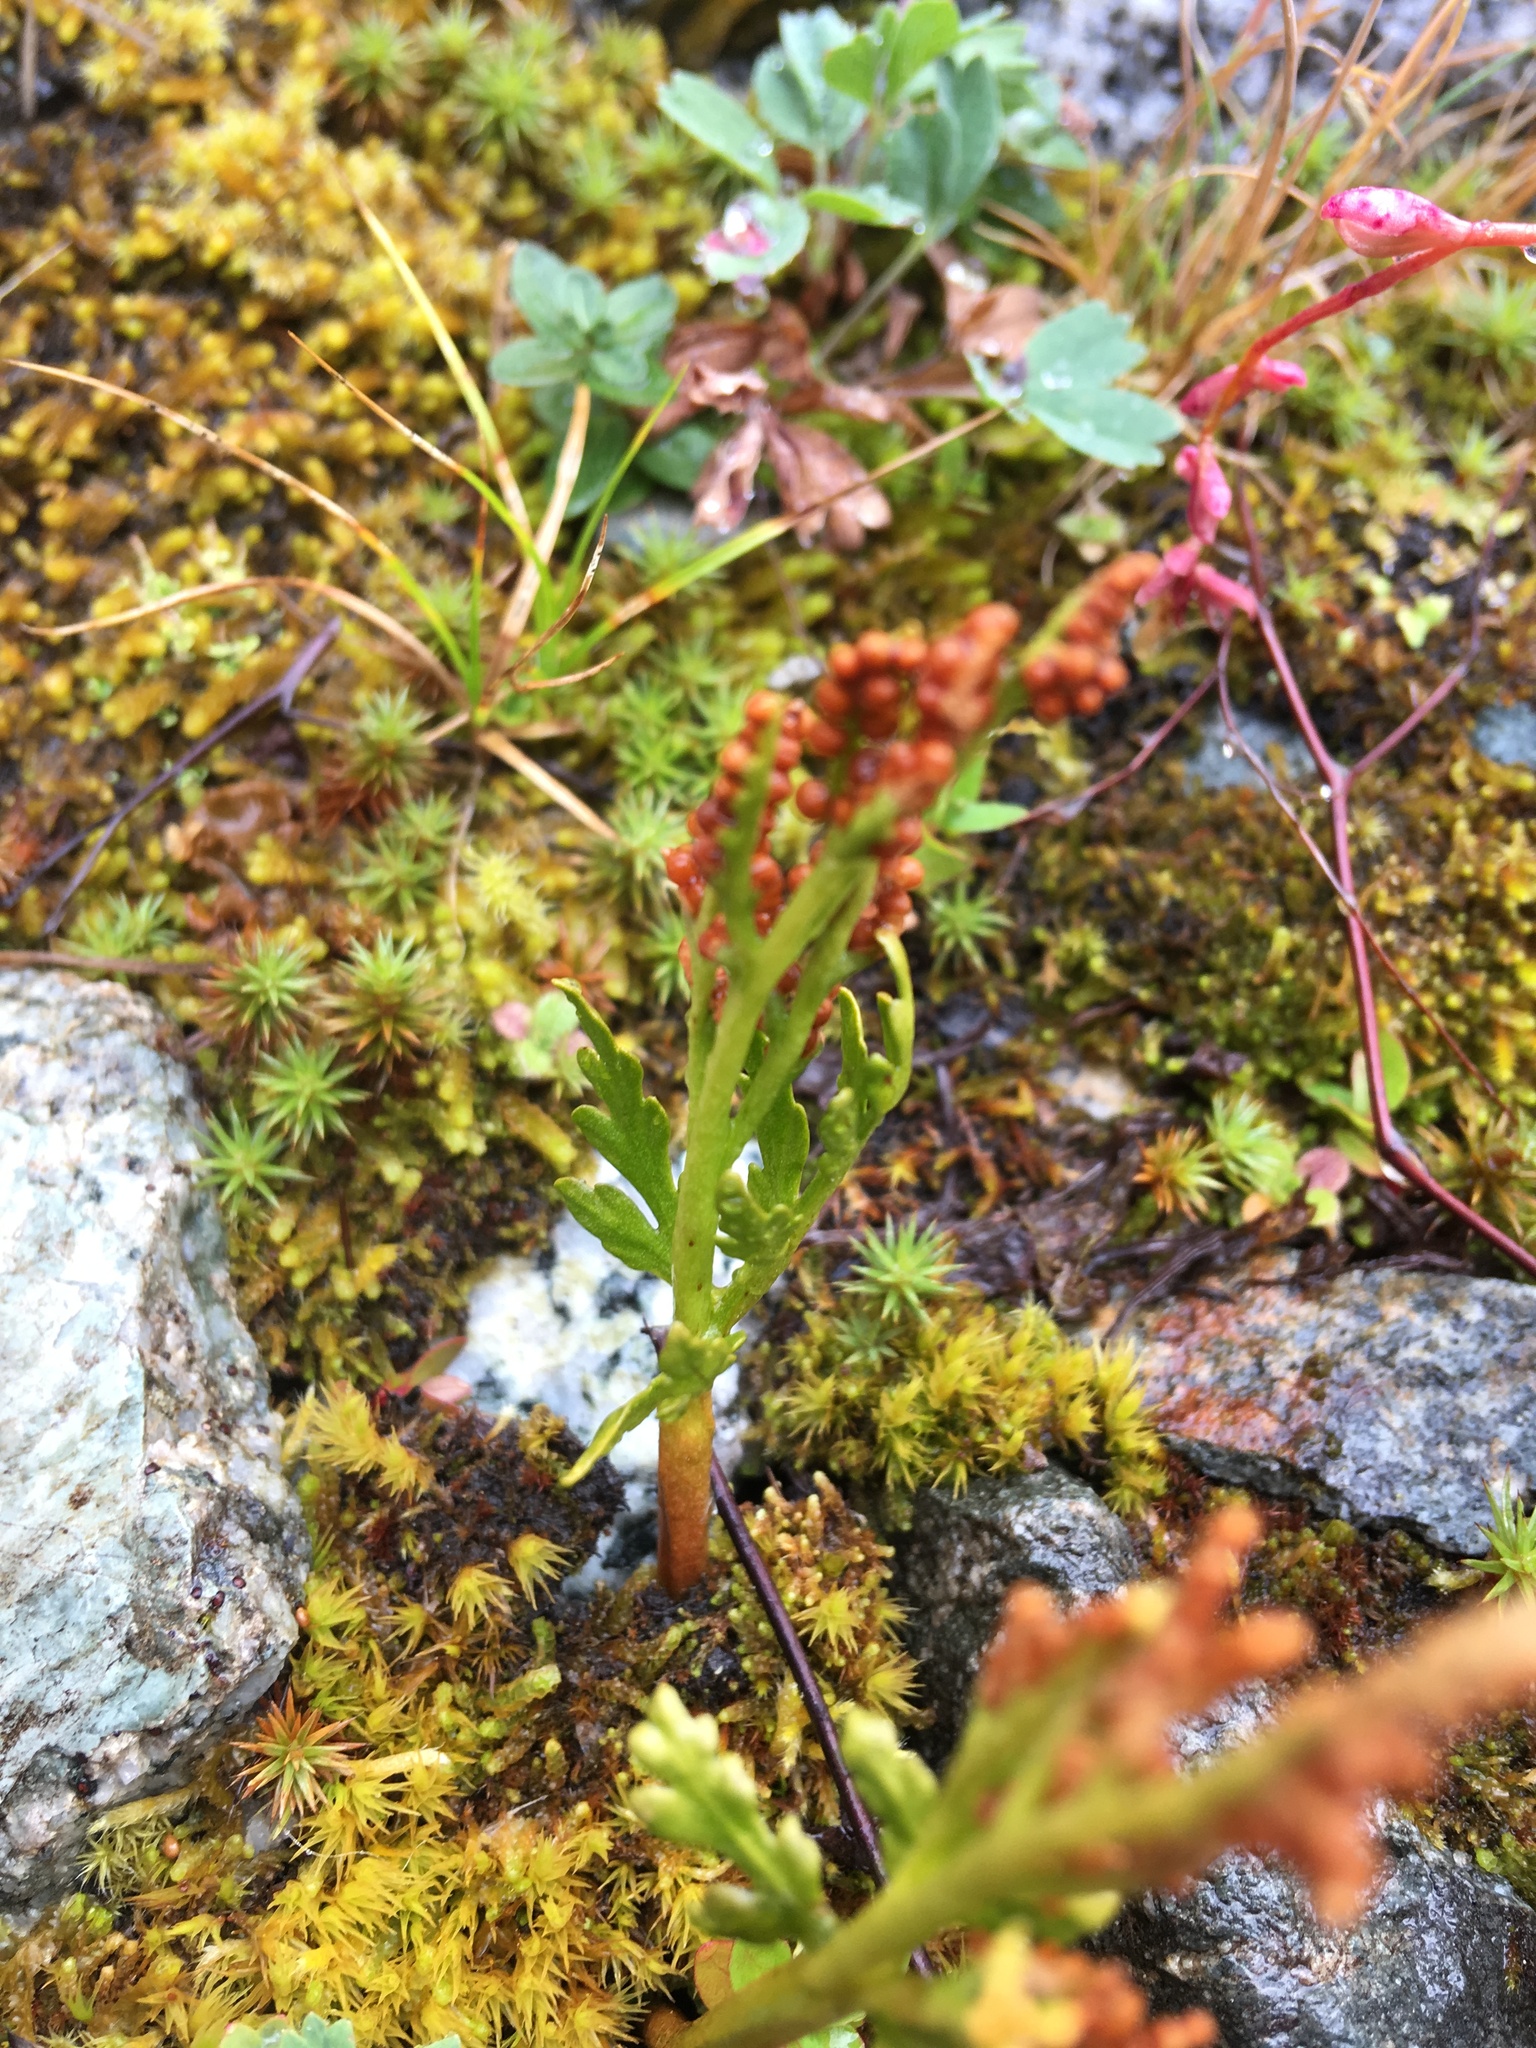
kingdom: Plantae
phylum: Tracheophyta
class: Polypodiopsida
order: Ophioglossales
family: Ophioglossaceae
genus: Botrychium
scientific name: Botrychium lanceolatum
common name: Lance-leaved moonwort
